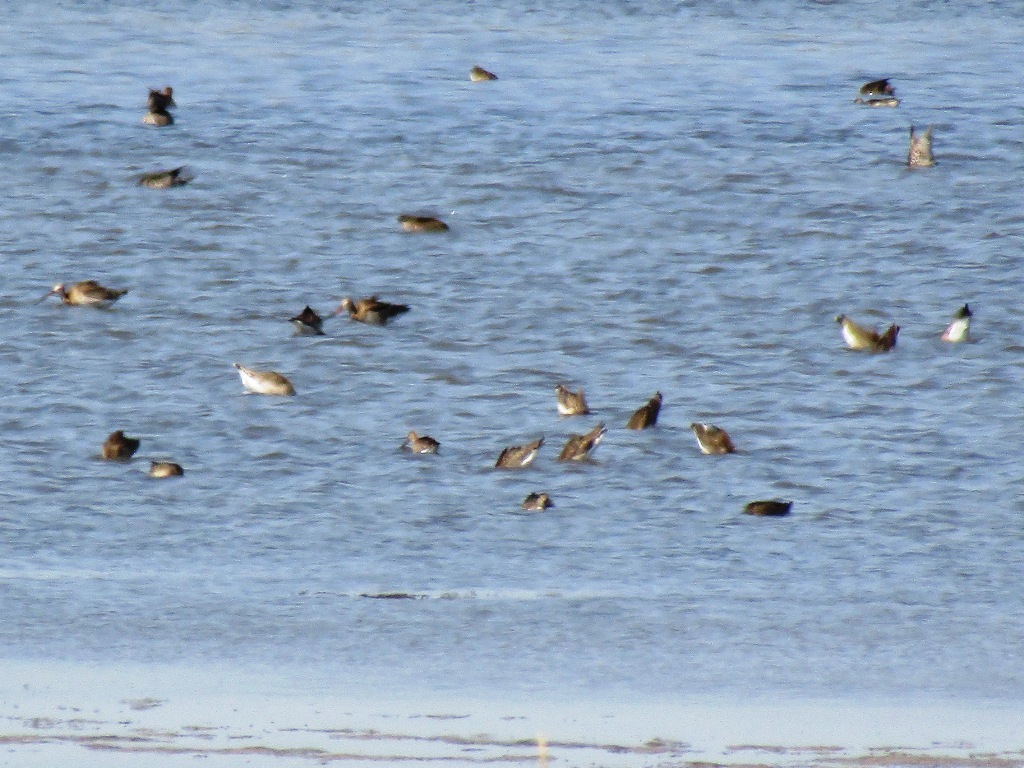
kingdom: Animalia
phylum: Chordata
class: Aves
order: Charadriiformes
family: Scolopacidae
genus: Limosa
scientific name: Limosa limosa
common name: Black-tailed godwit
